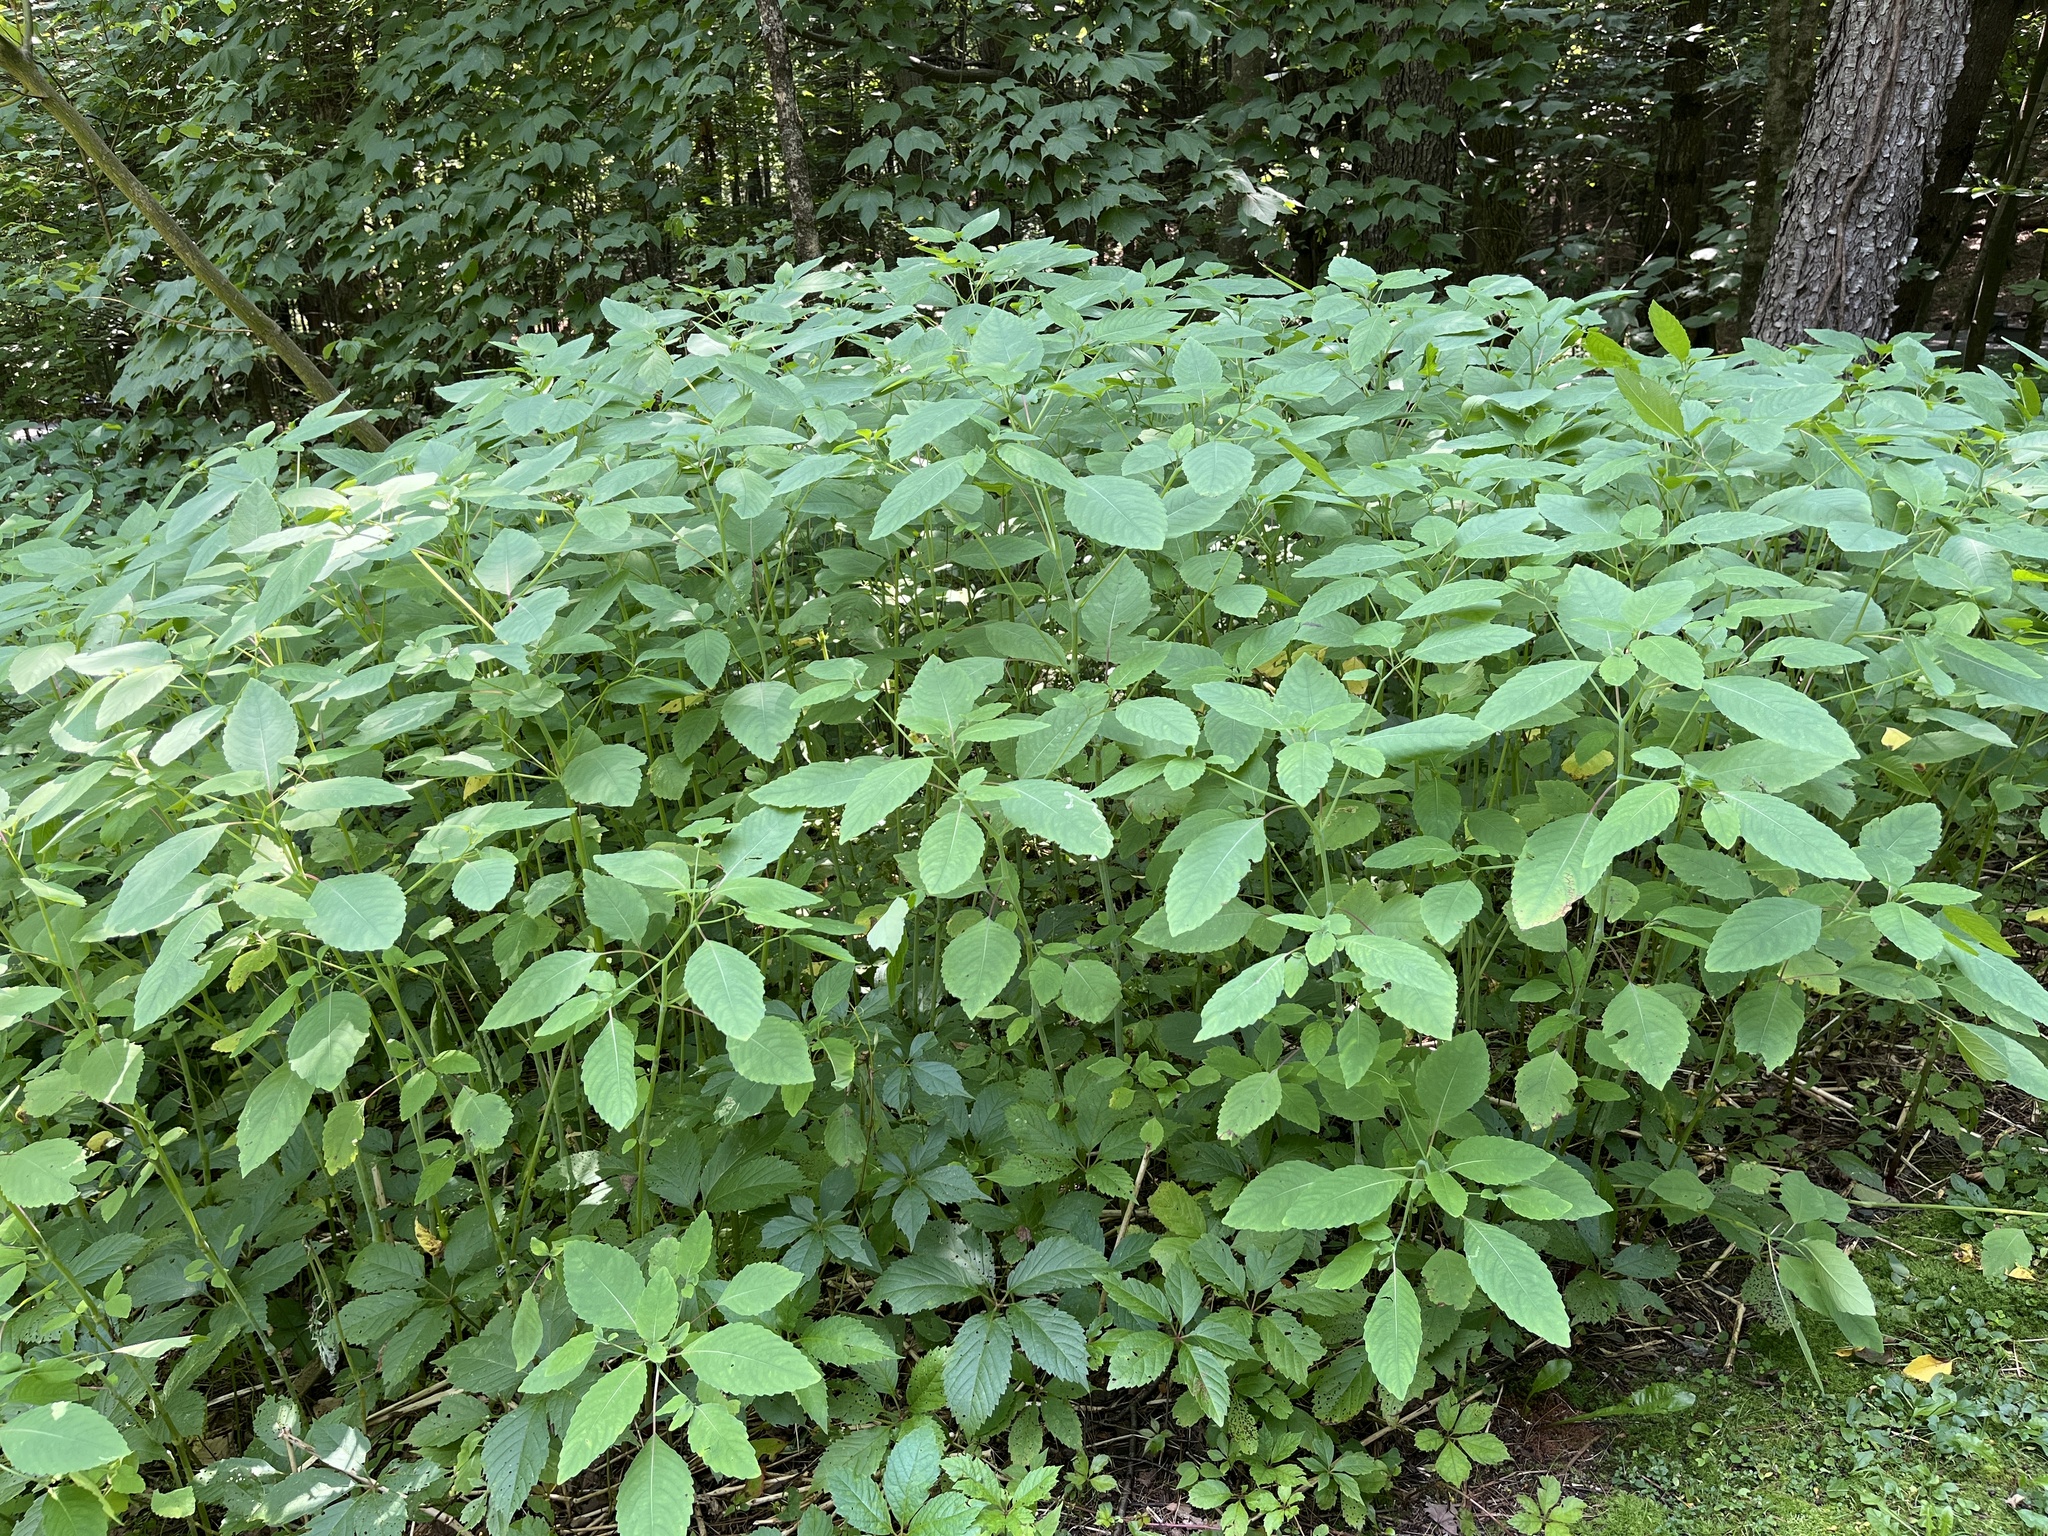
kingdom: Plantae
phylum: Tracheophyta
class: Magnoliopsida
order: Ericales
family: Balsaminaceae
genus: Impatiens
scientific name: Impatiens pallida
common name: Pale snapweed
